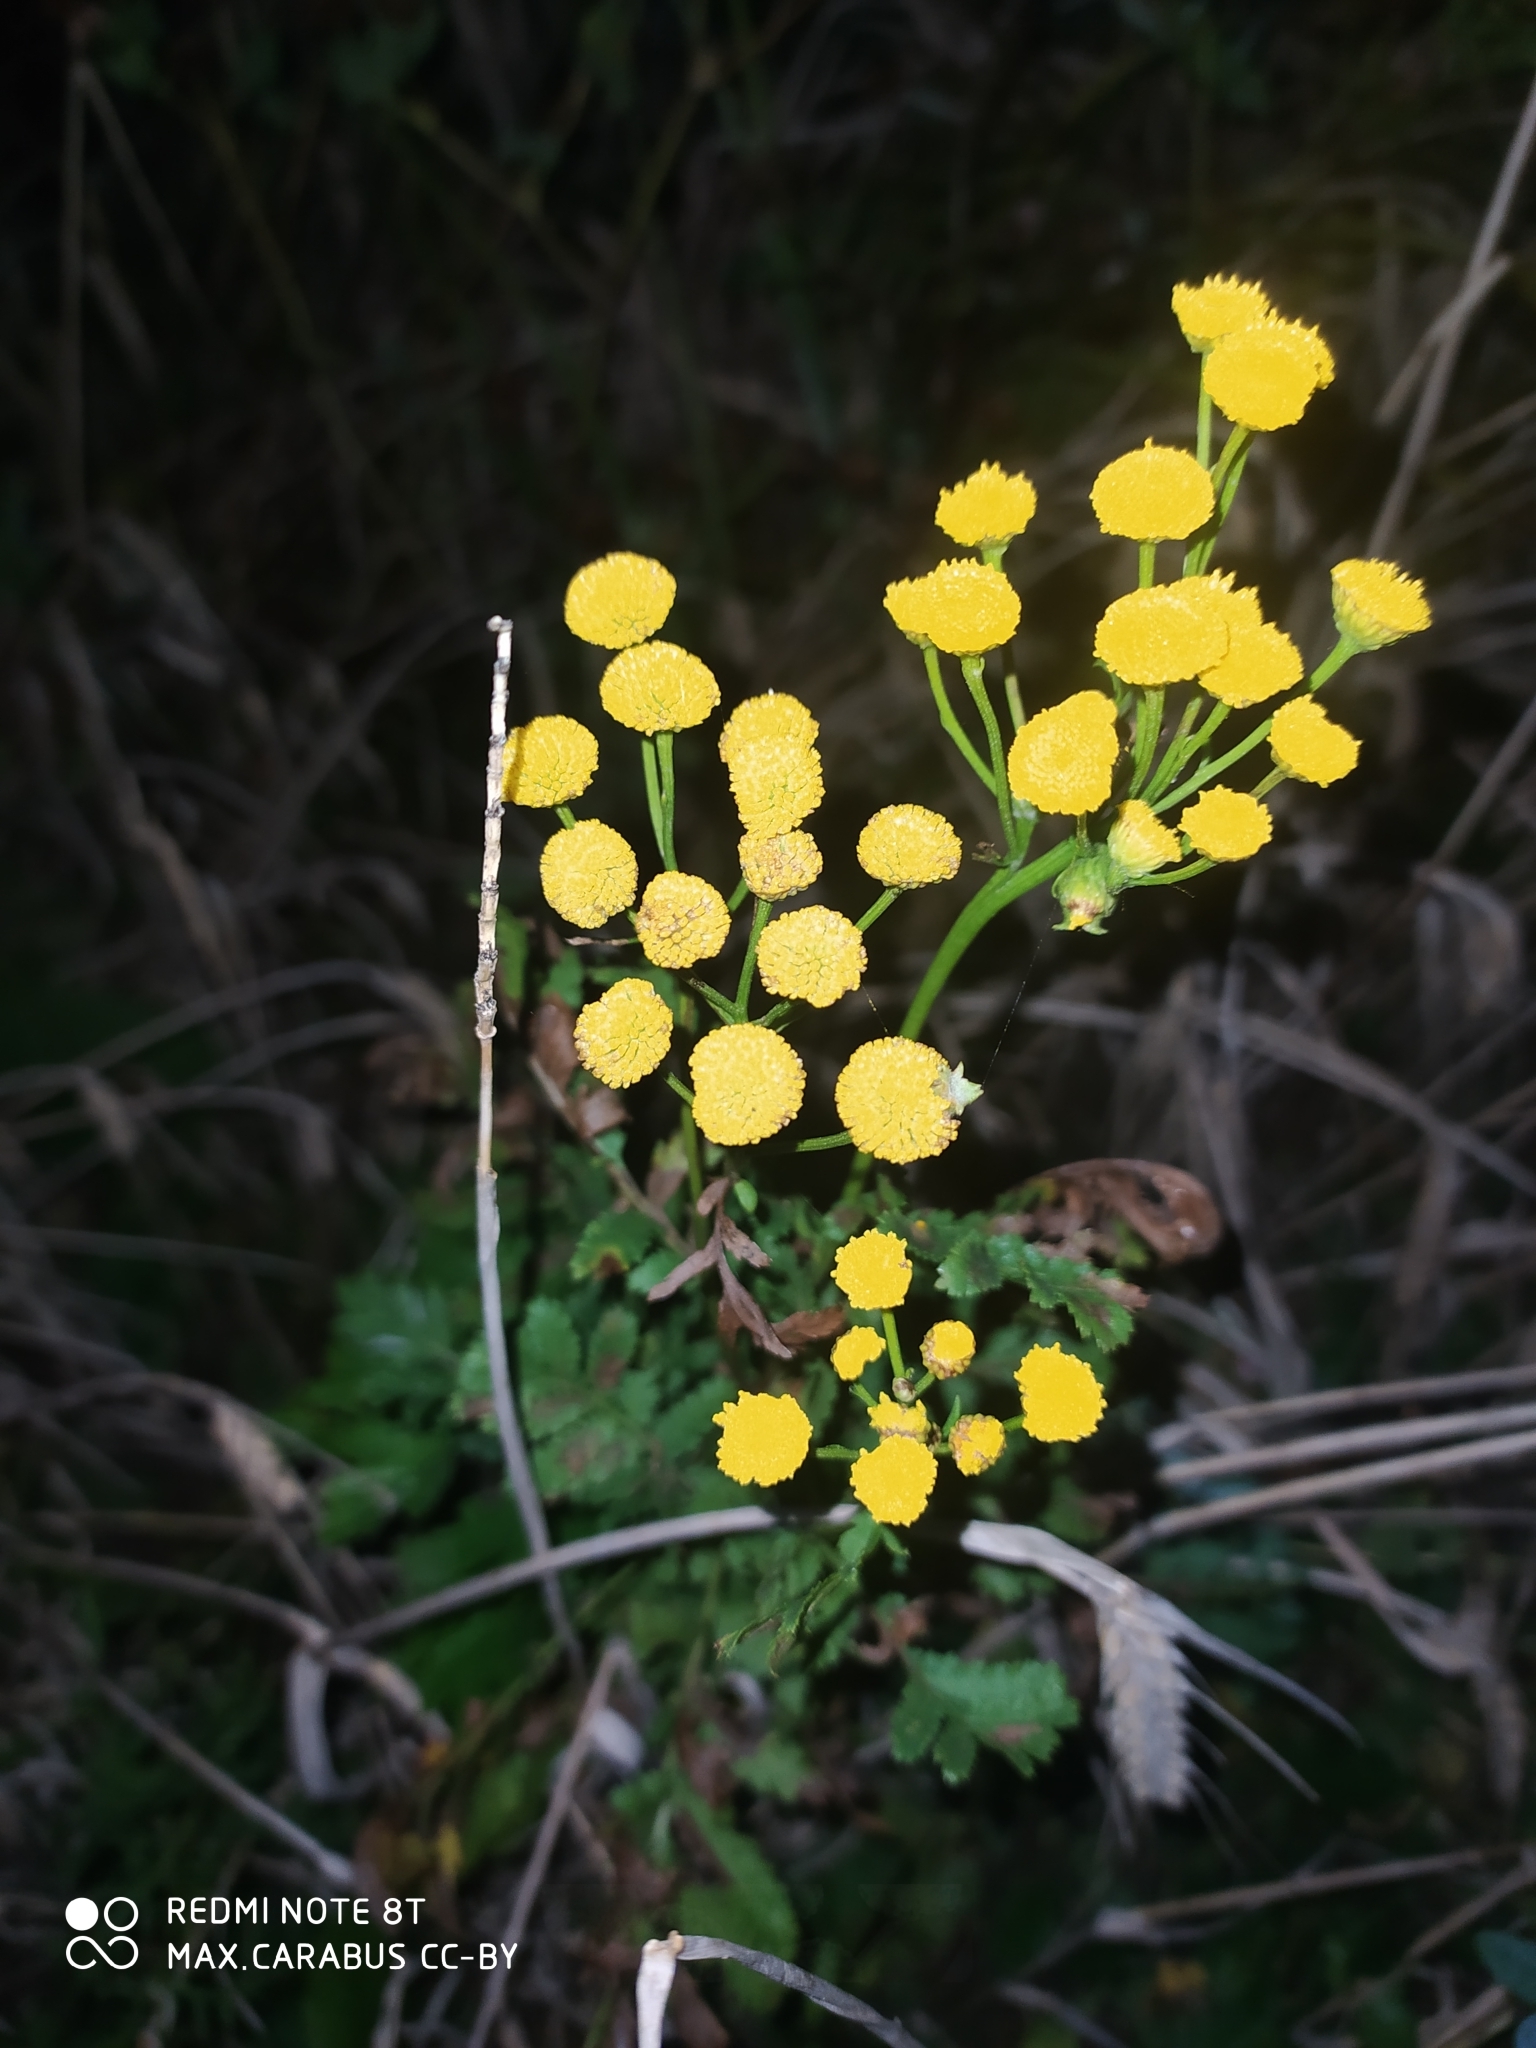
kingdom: Plantae
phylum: Tracheophyta
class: Magnoliopsida
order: Asterales
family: Asteraceae
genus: Tanacetum
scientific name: Tanacetum vulgare
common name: Common tansy
